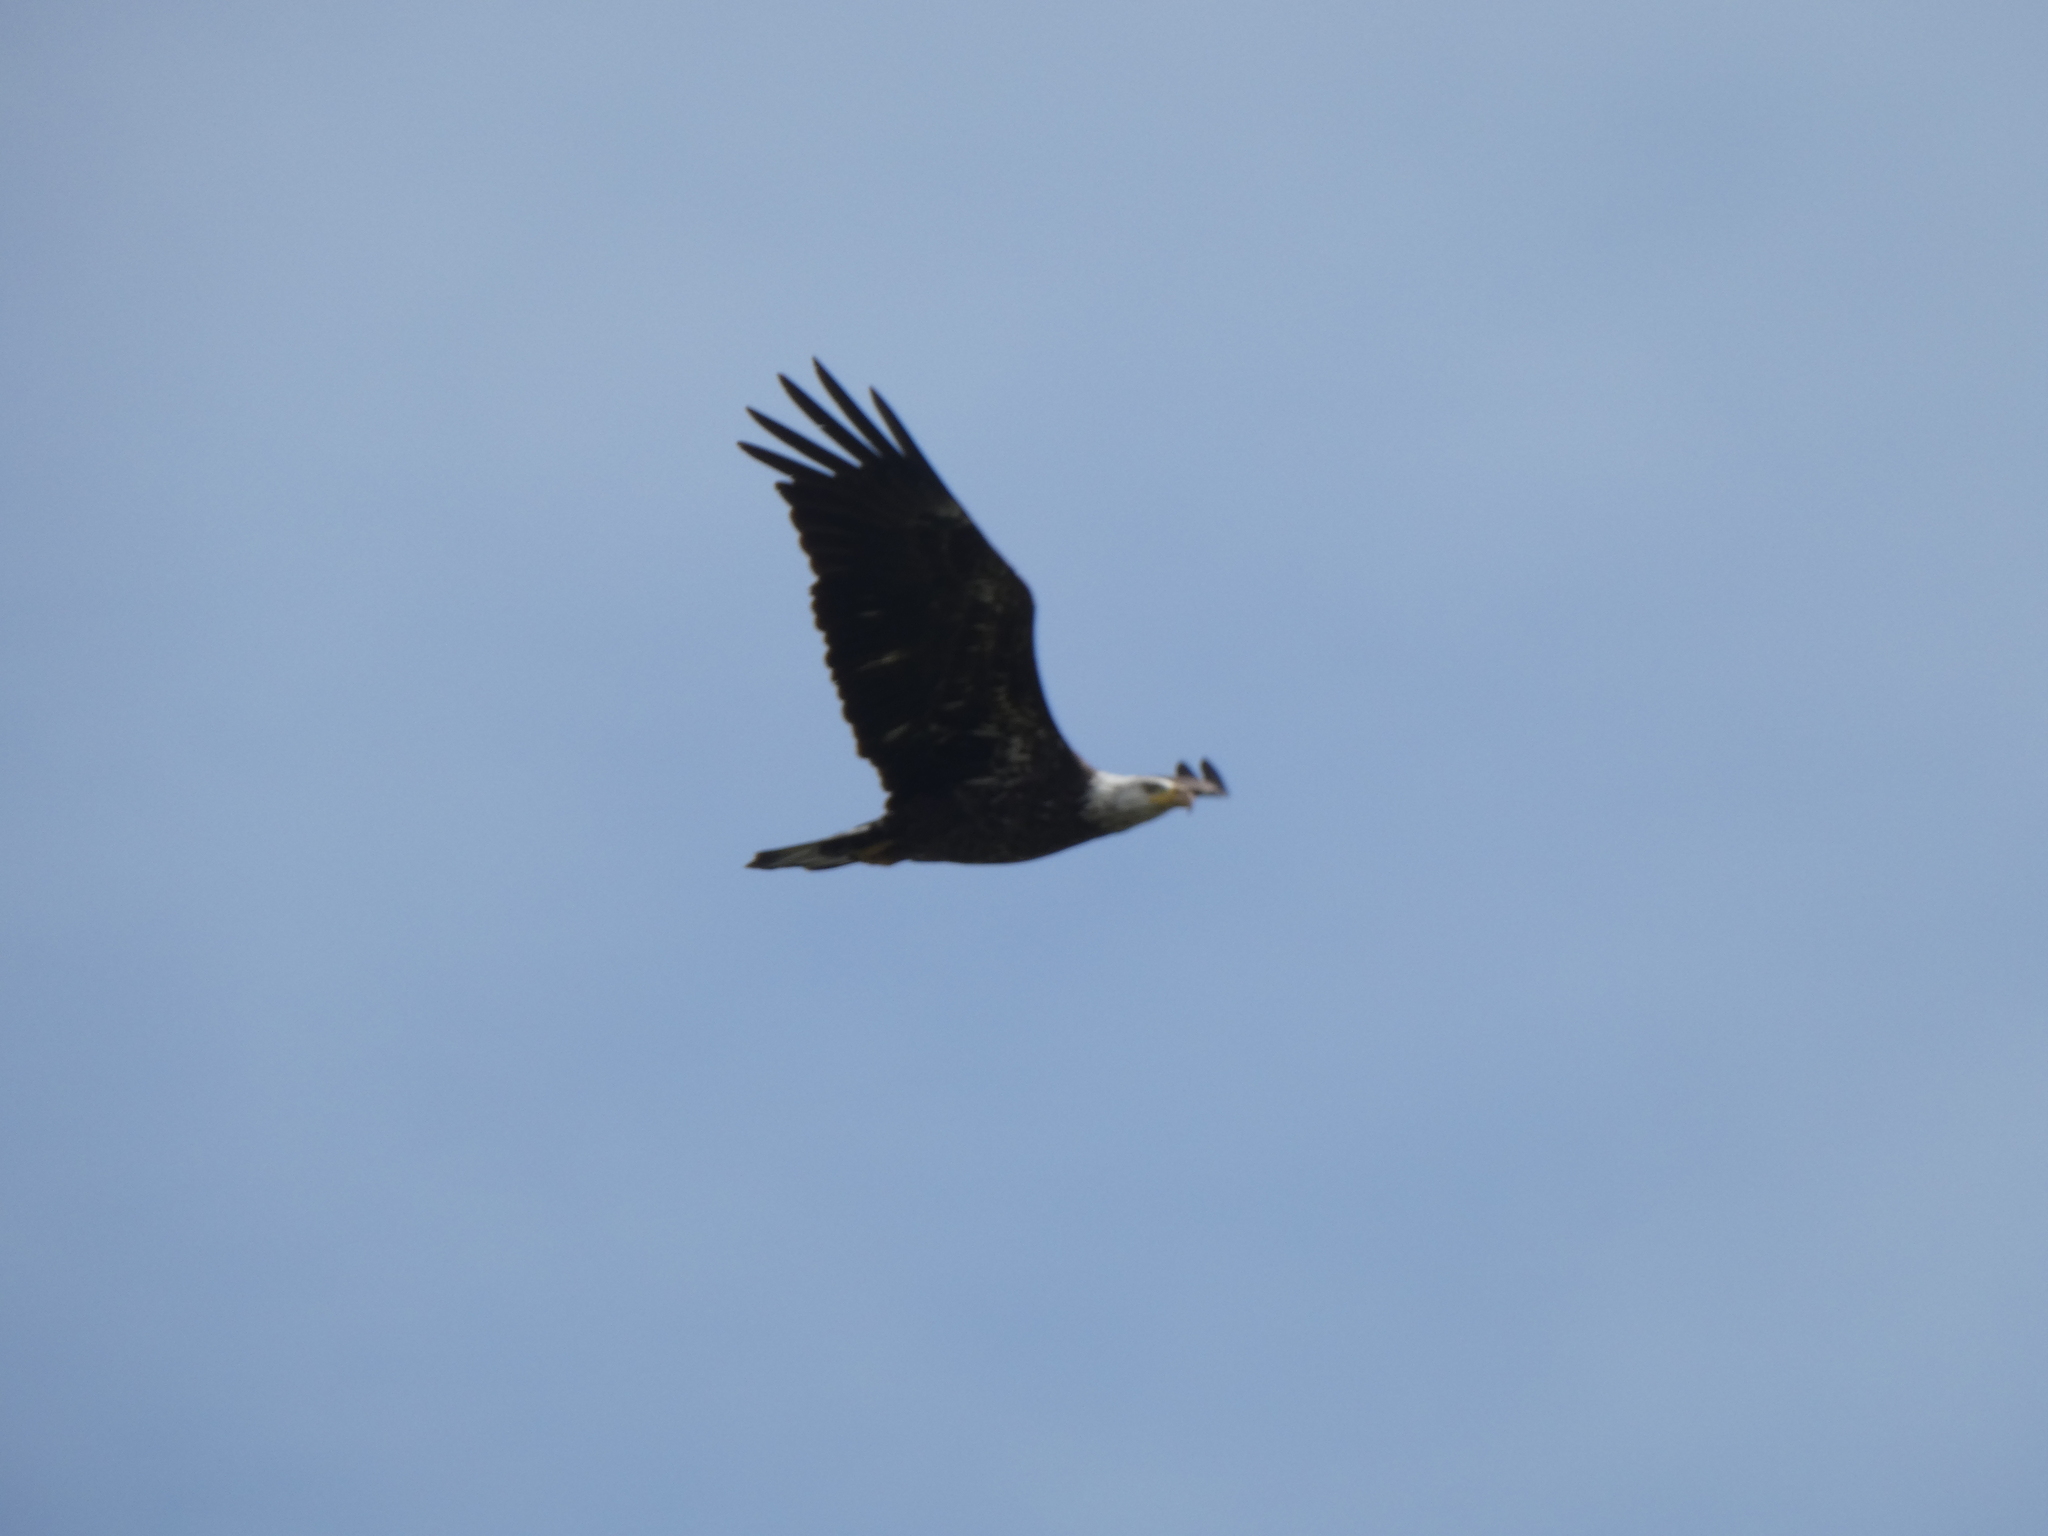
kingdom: Animalia
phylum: Chordata
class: Aves
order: Accipitriformes
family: Accipitridae
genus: Haliaeetus
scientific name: Haliaeetus leucocephalus
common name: Bald eagle
